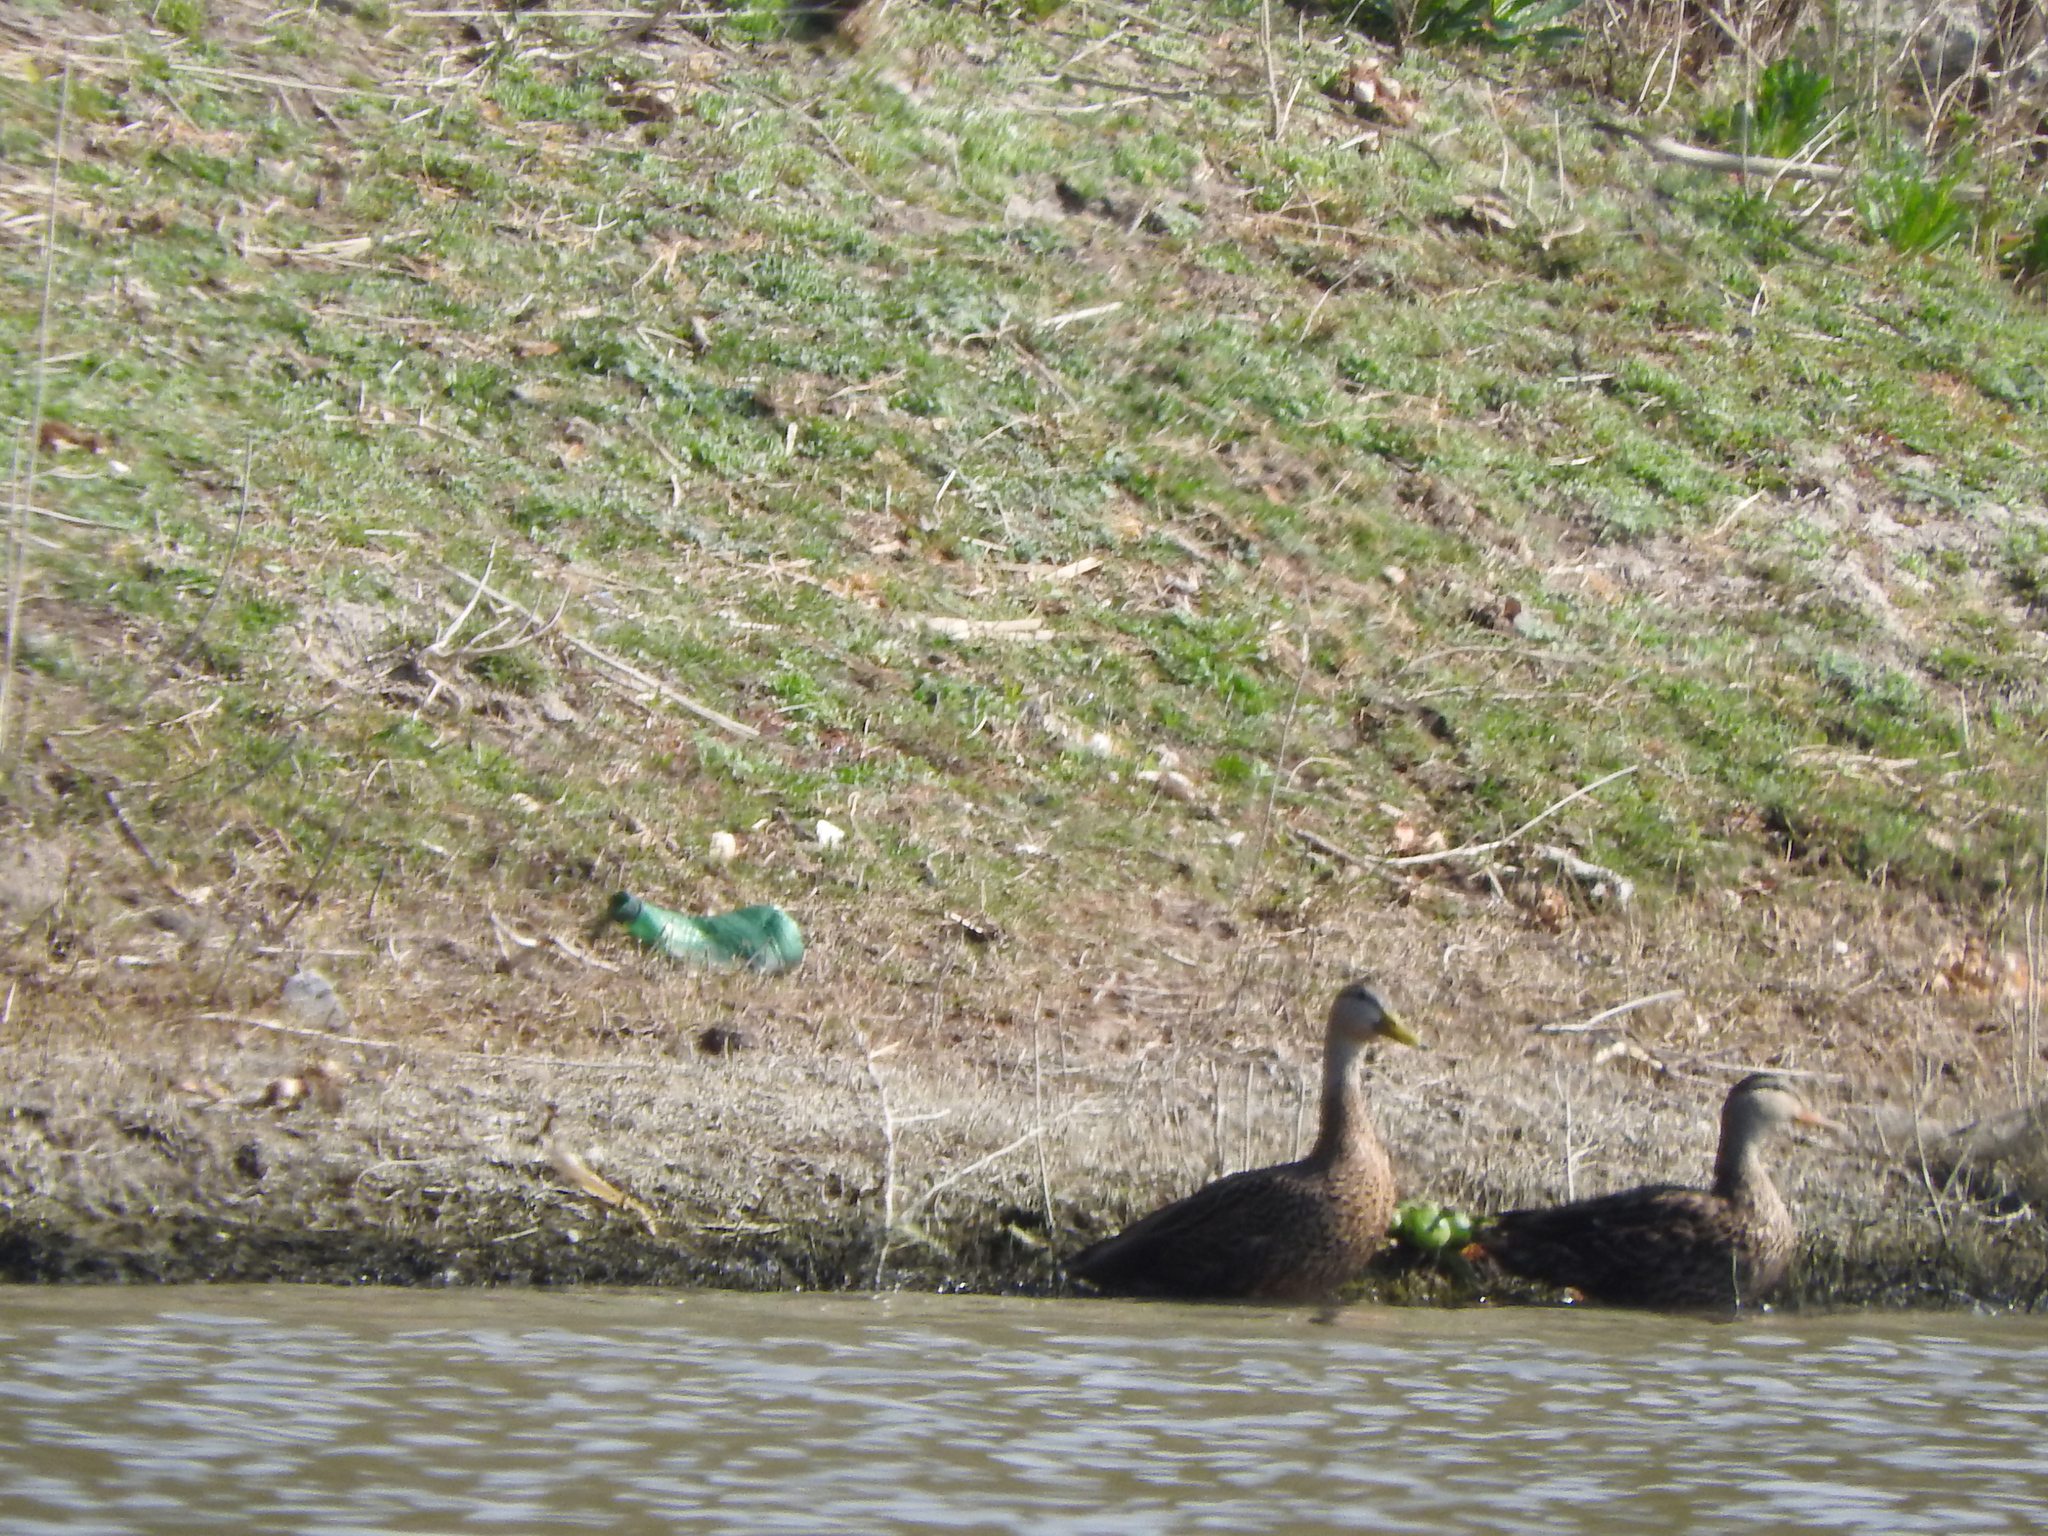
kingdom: Animalia
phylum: Chordata
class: Aves
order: Anseriformes
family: Anatidae
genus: Anas
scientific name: Anas diazi
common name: Mexican duck
